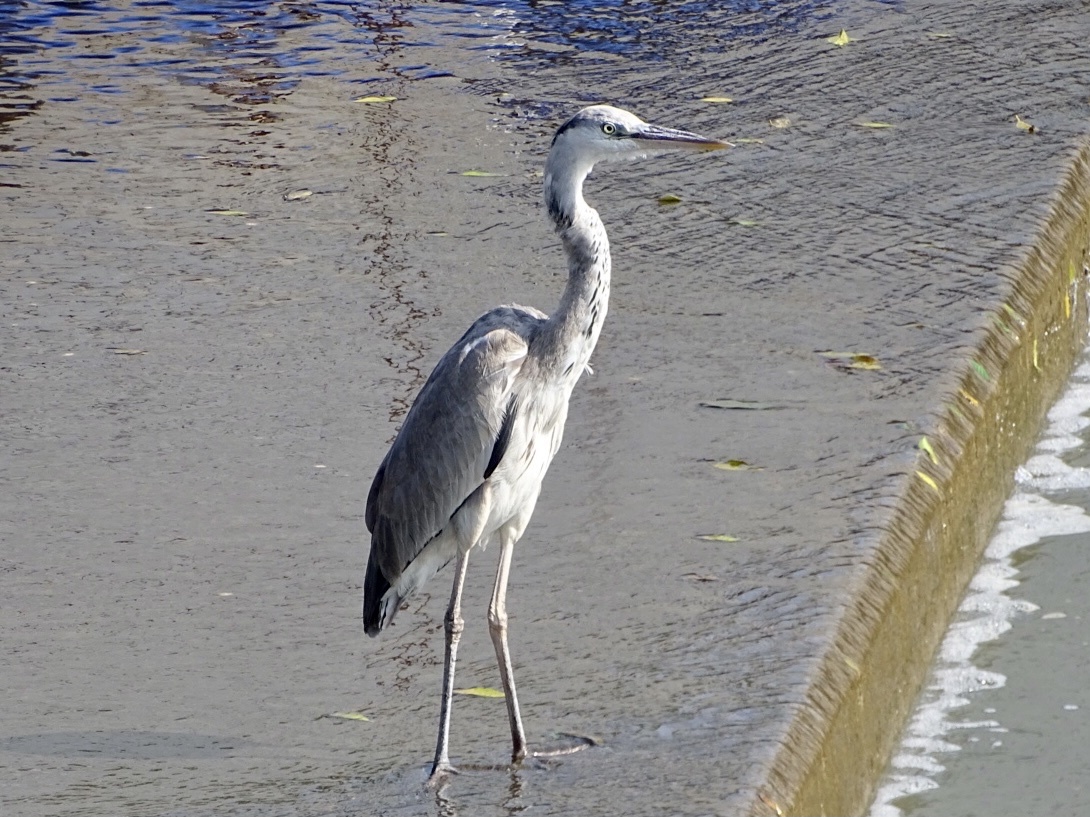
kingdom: Animalia
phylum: Chordata
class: Aves
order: Pelecaniformes
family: Ardeidae
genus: Ardea
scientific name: Ardea cinerea
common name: Grey heron
